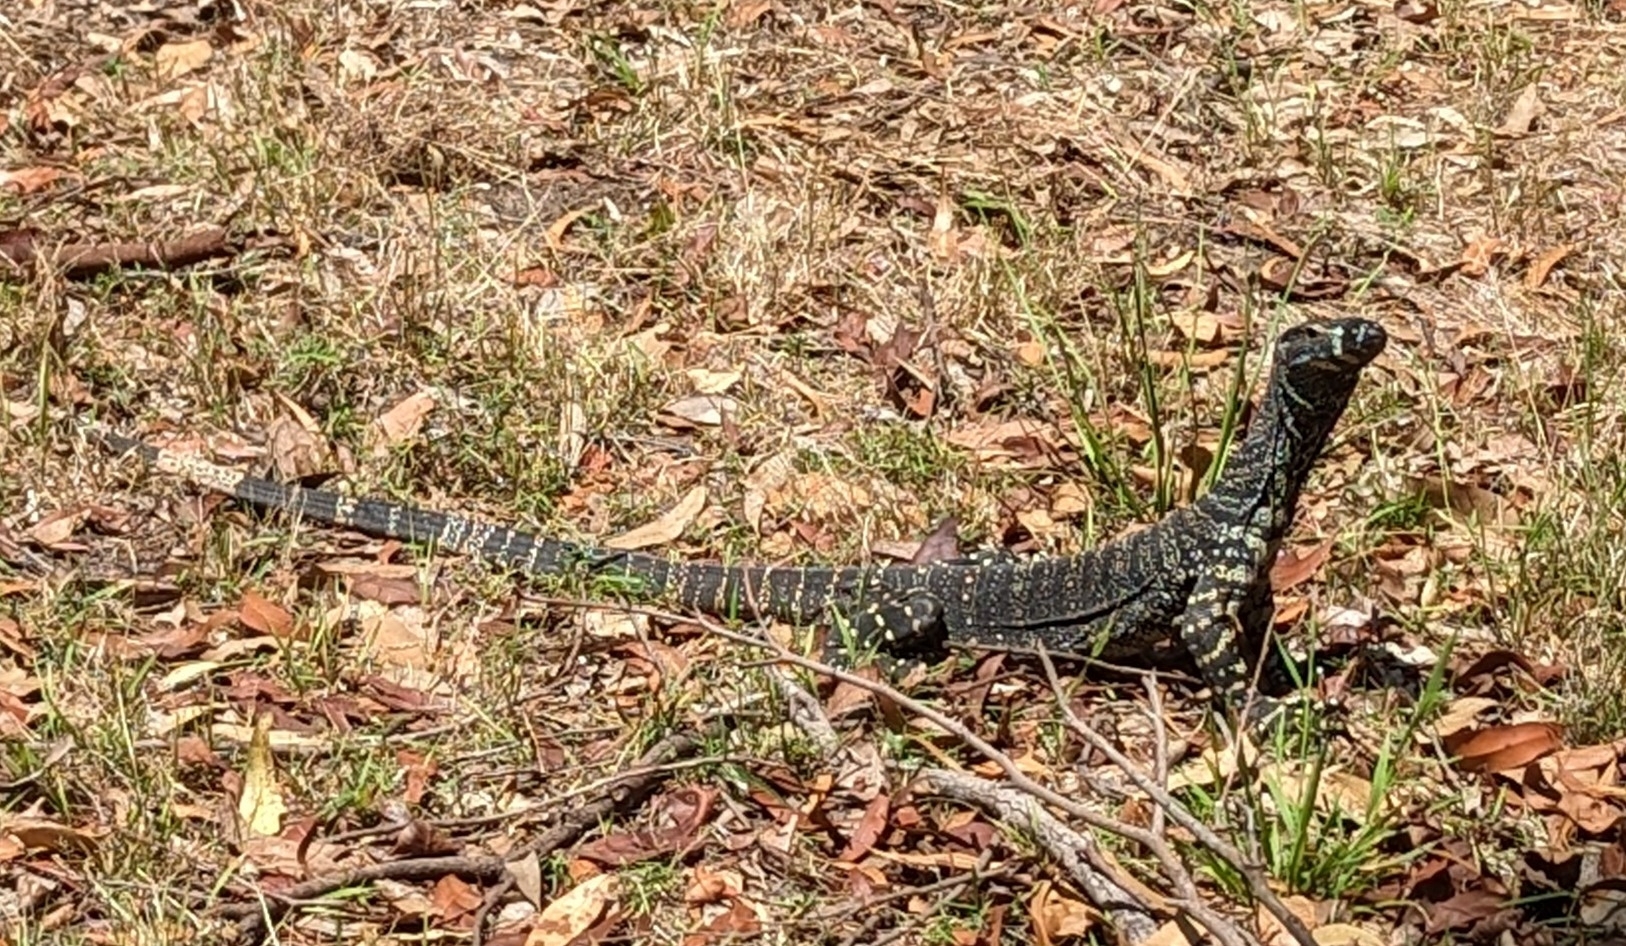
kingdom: Animalia
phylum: Chordata
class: Squamata
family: Varanidae
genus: Varanus
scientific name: Varanus varius
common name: Lace monitor
